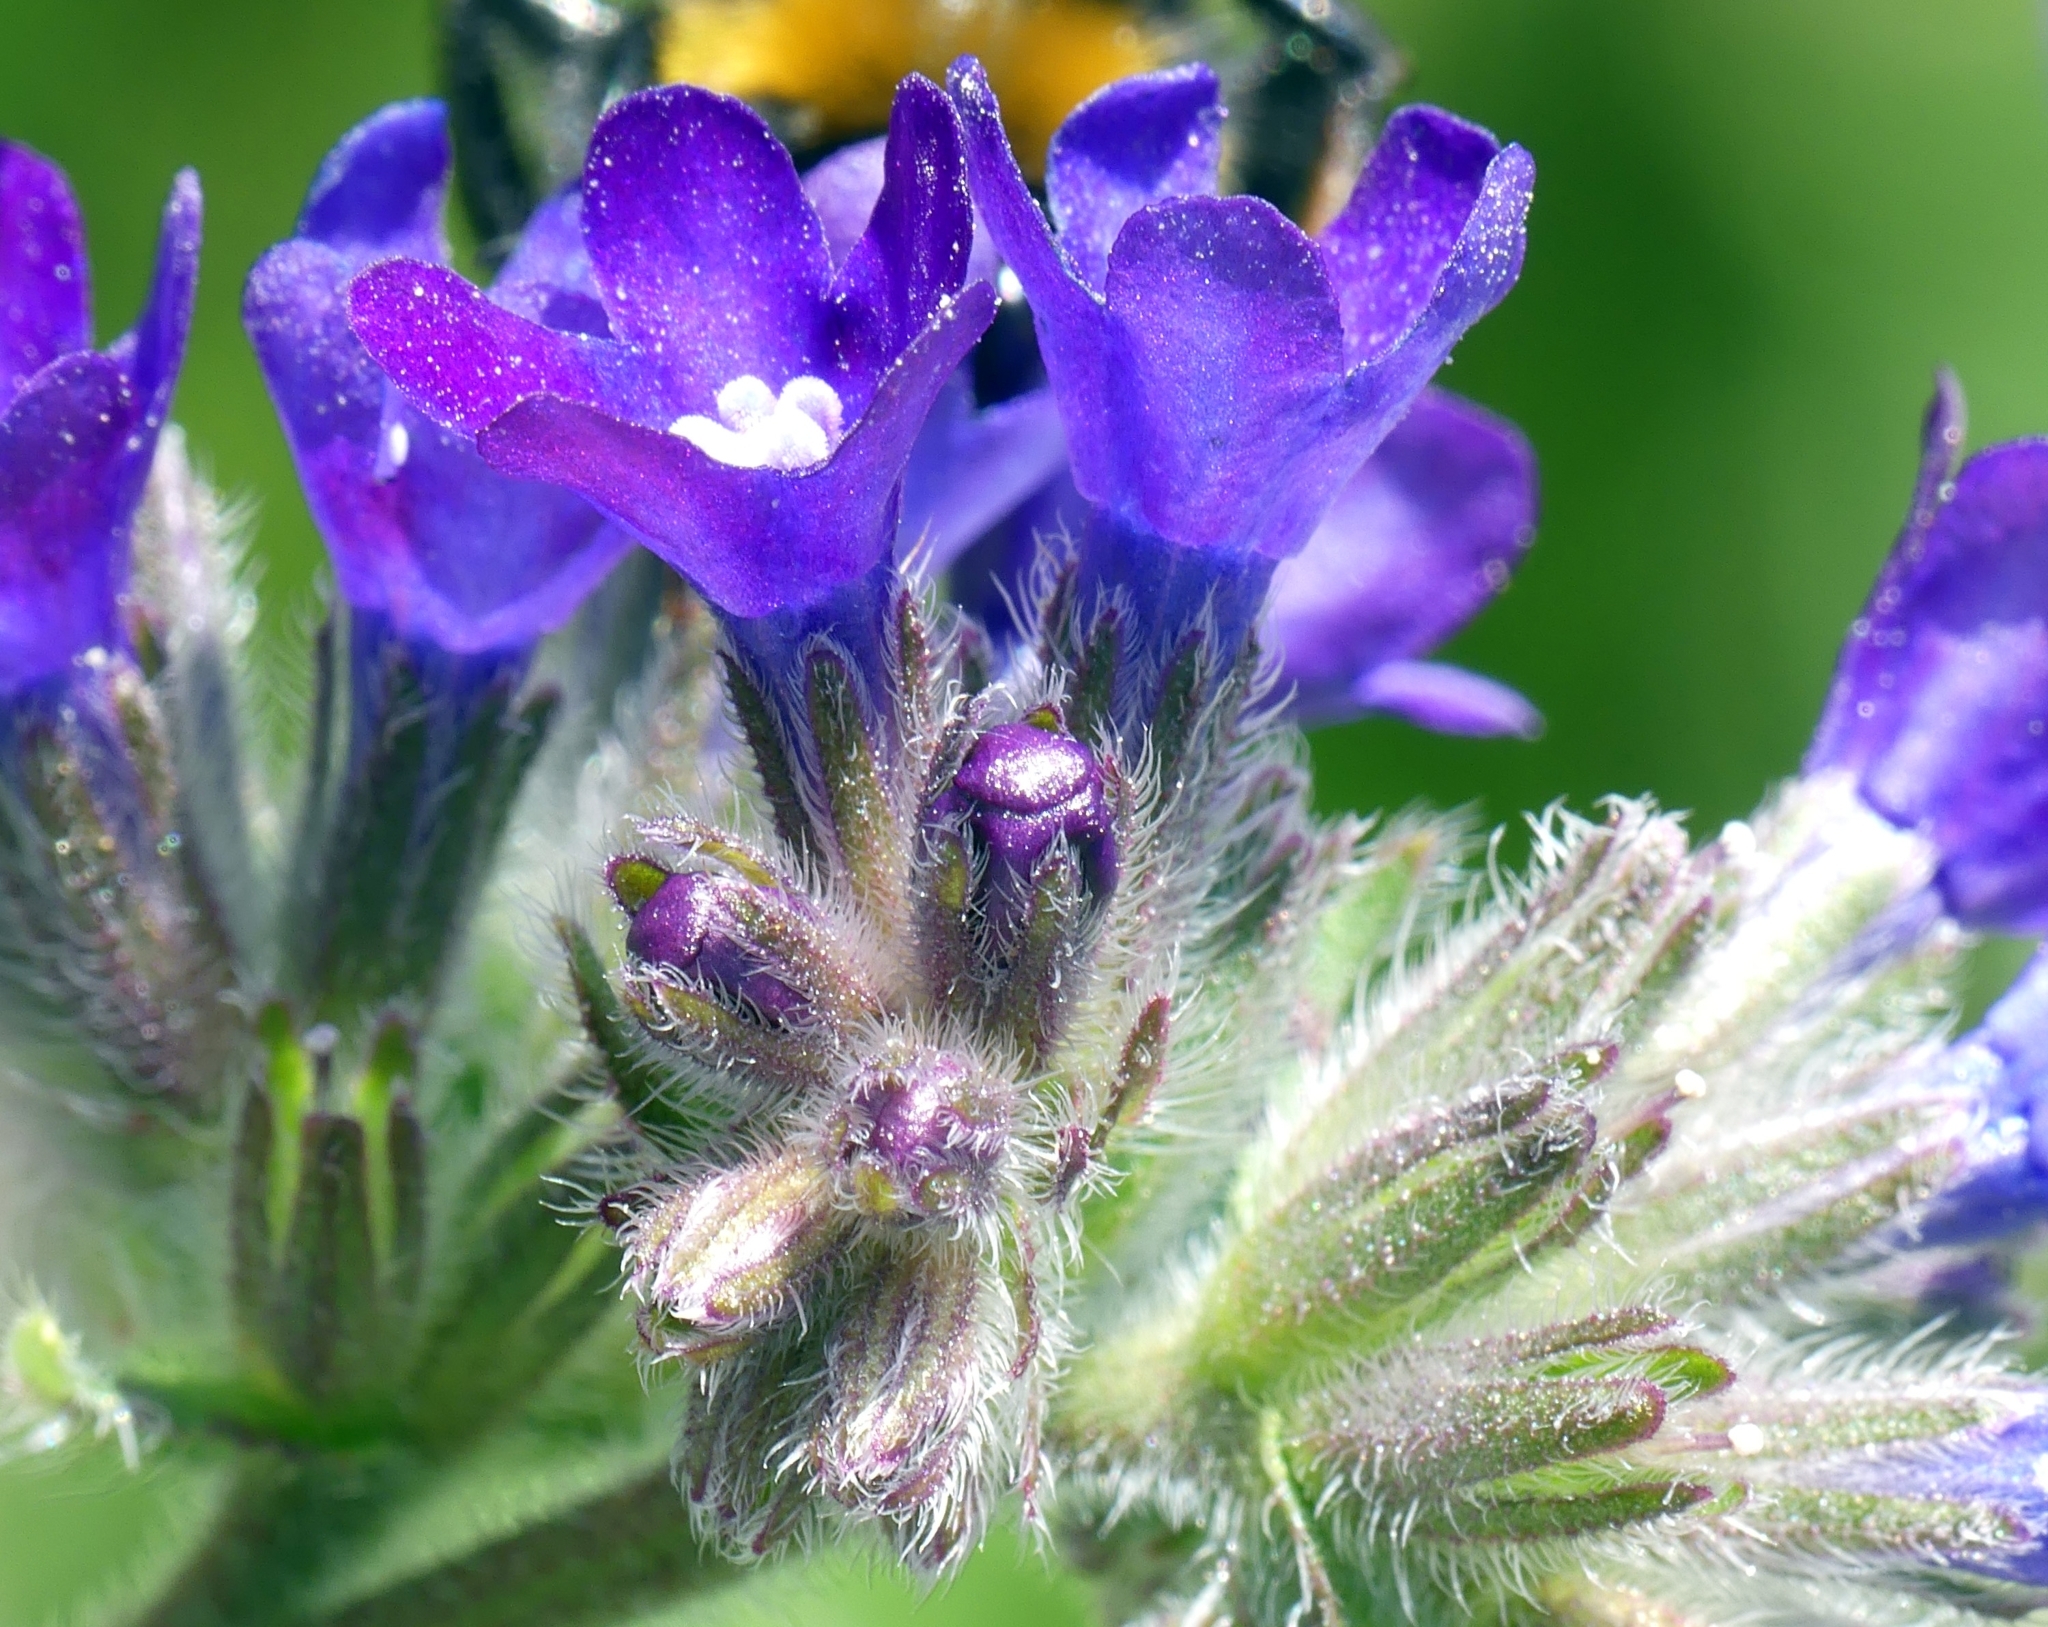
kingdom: Plantae
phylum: Tracheophyta
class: Magnoliopsida
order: Boraginales
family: Boraginaceae
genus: Anchusa
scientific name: Anchusa officinalis
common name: Alkanet
